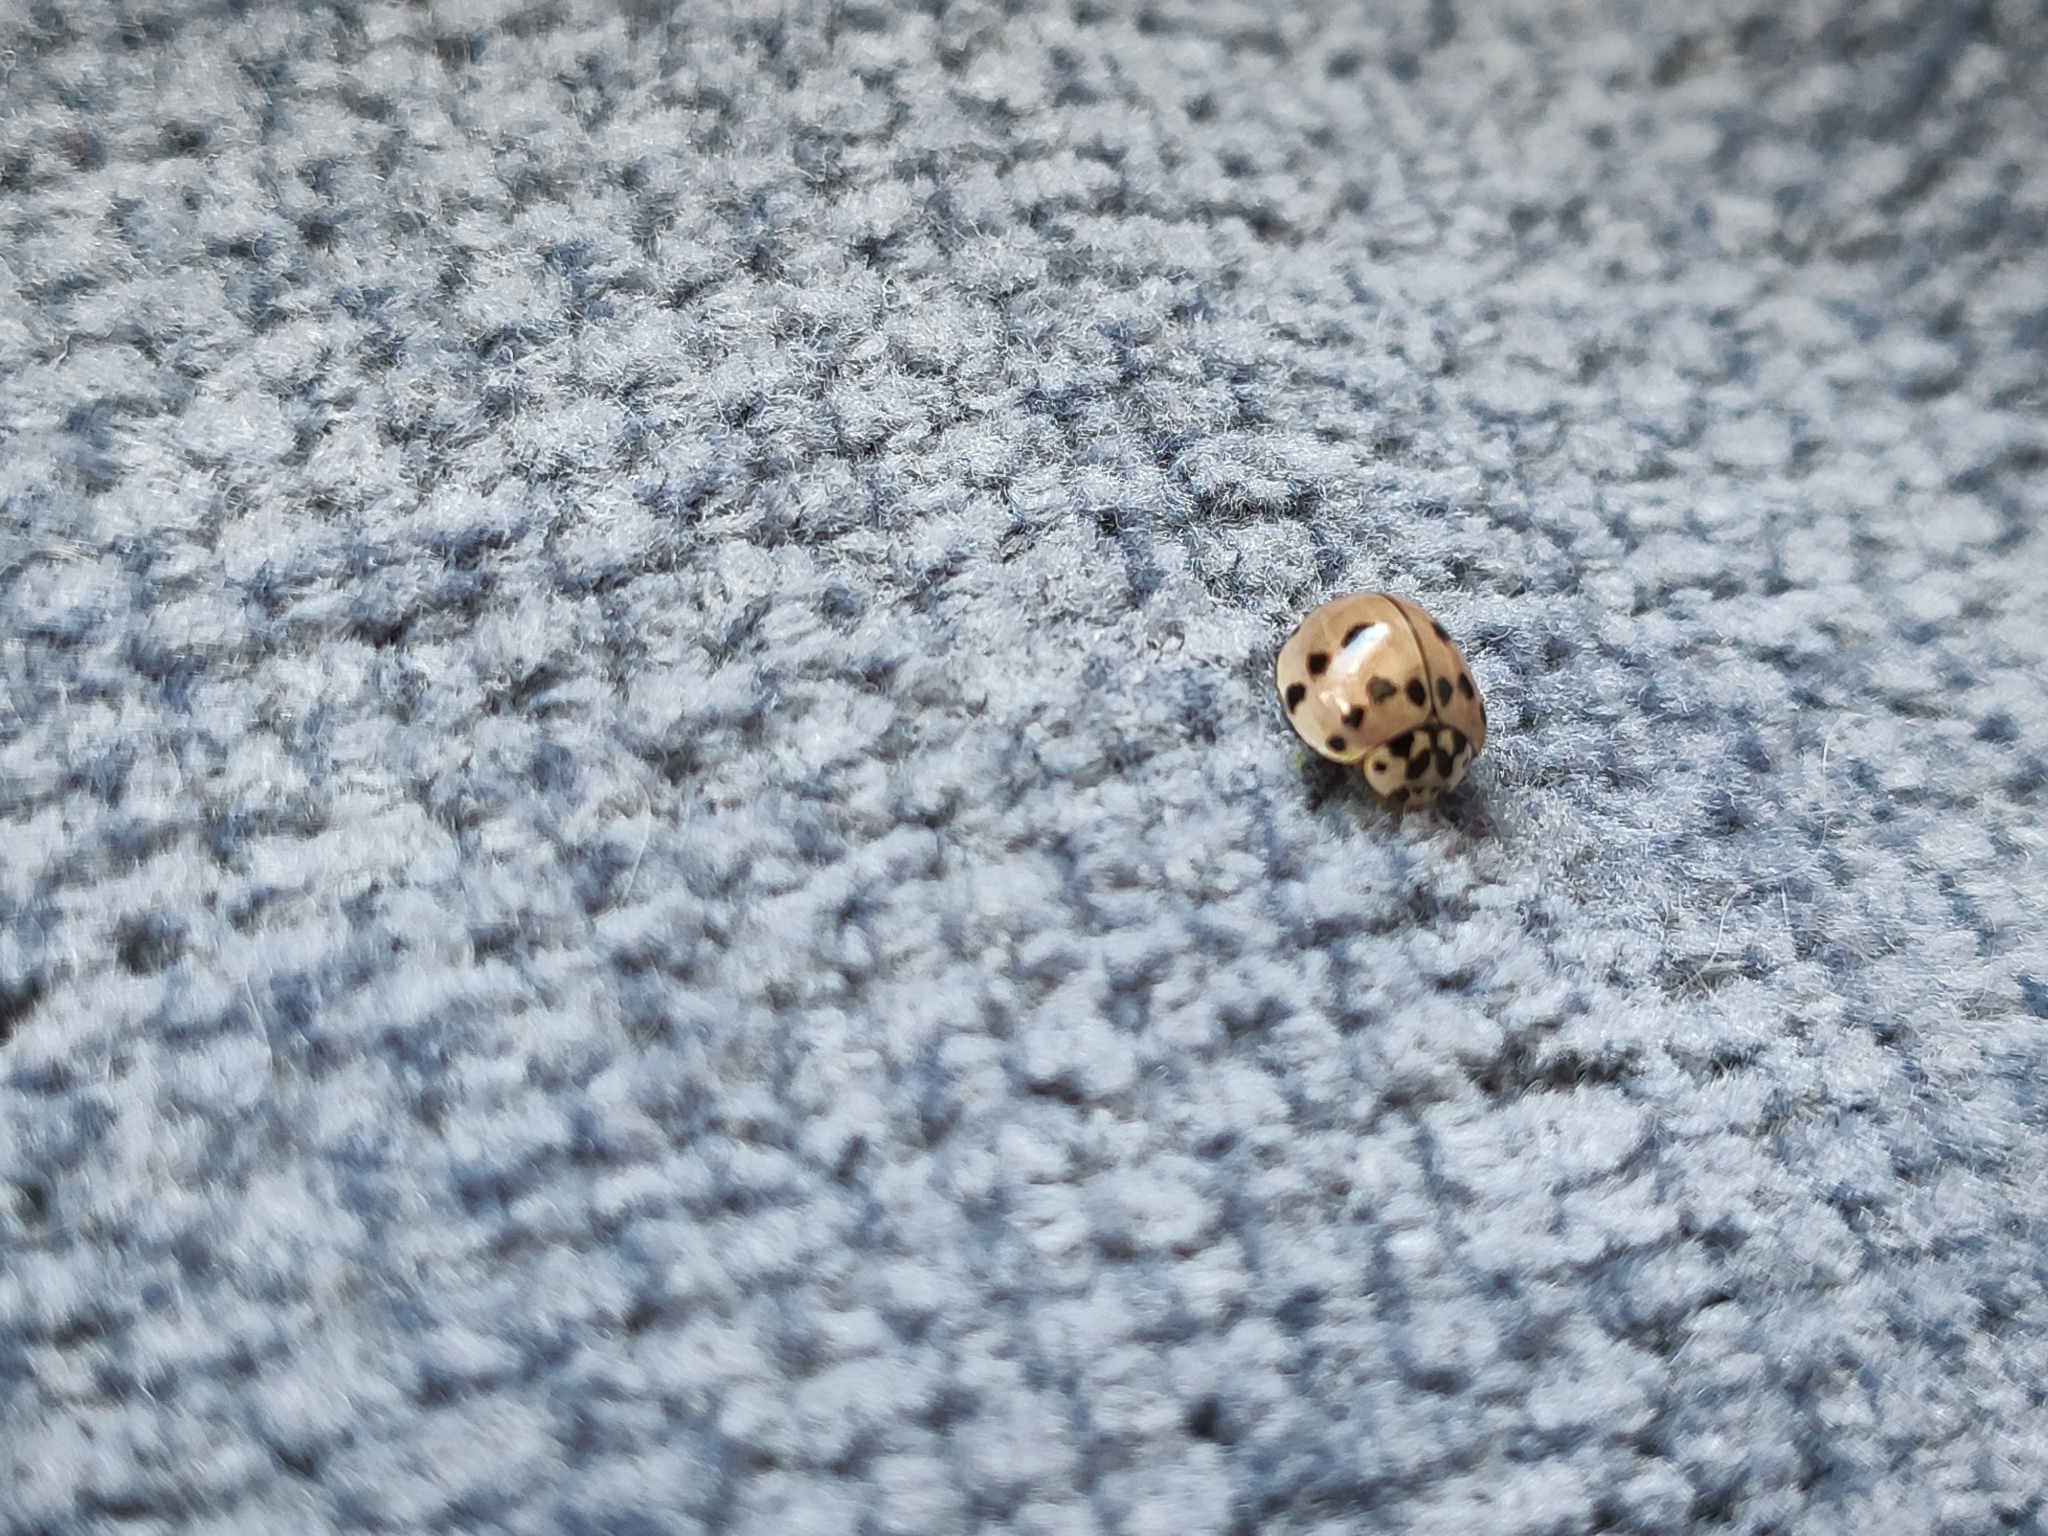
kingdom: Animalia
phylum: Arthropoda
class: Insecta
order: Coleoptera
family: Coccinellidae
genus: Olla
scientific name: Olla v-nigrum
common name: Ashy gray lady beetle
